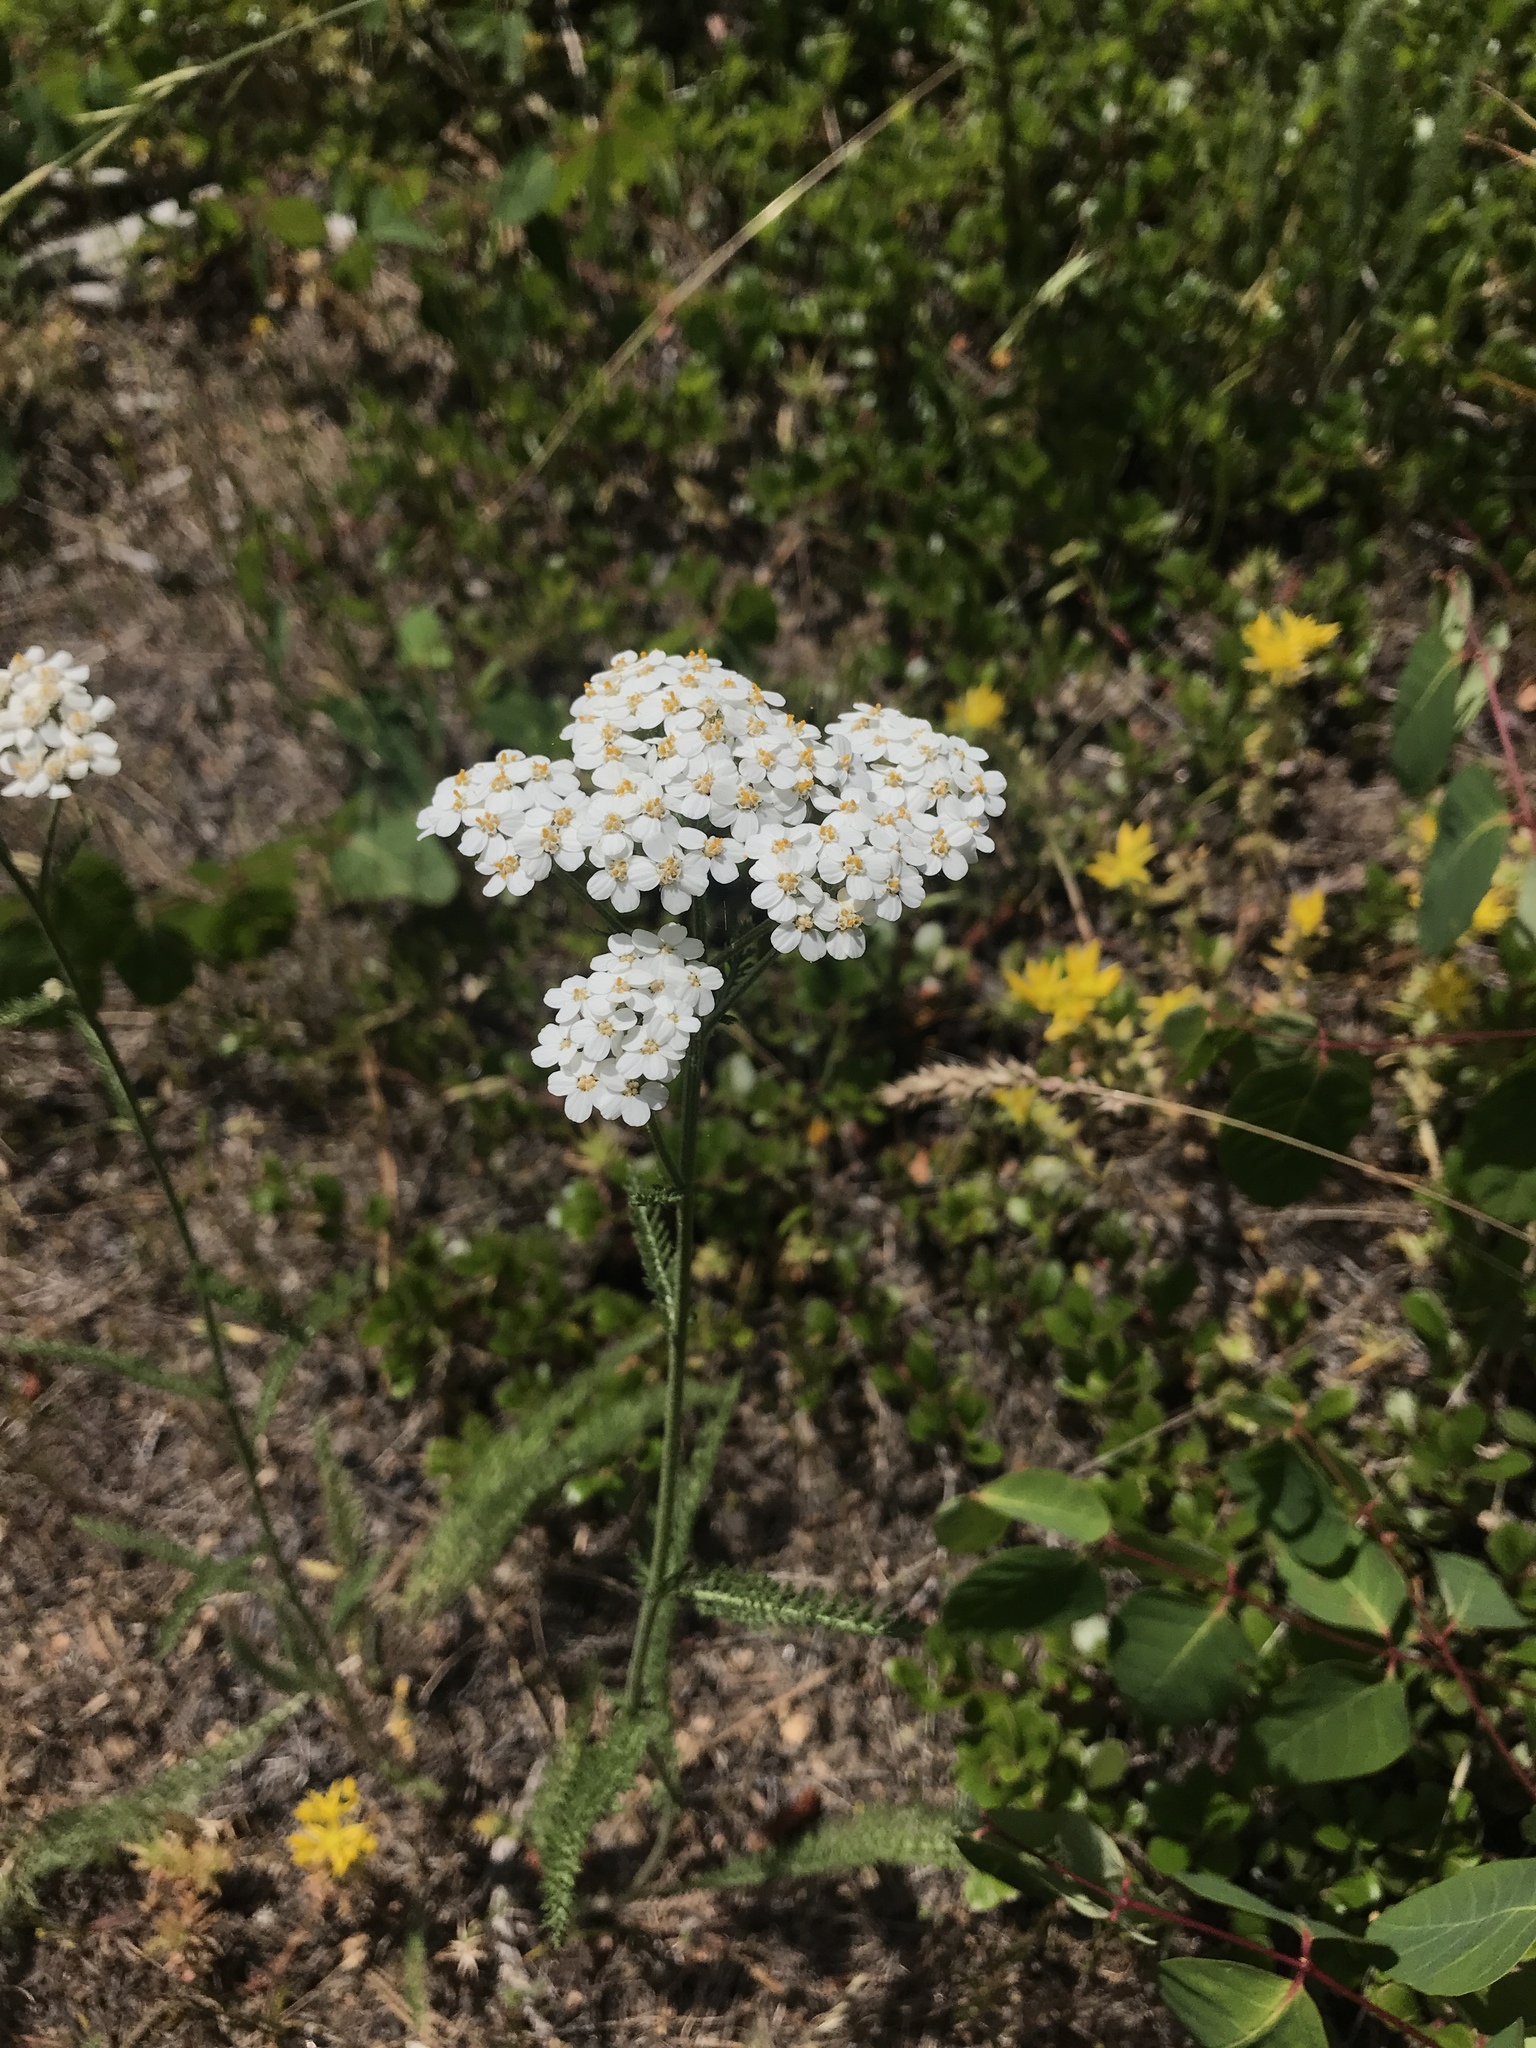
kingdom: Plantae
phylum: Tracheophyta
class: Magnoliopsida
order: Asterales
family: Asteraceae
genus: Achillea
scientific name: Achillea millefolium
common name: Yarrow
